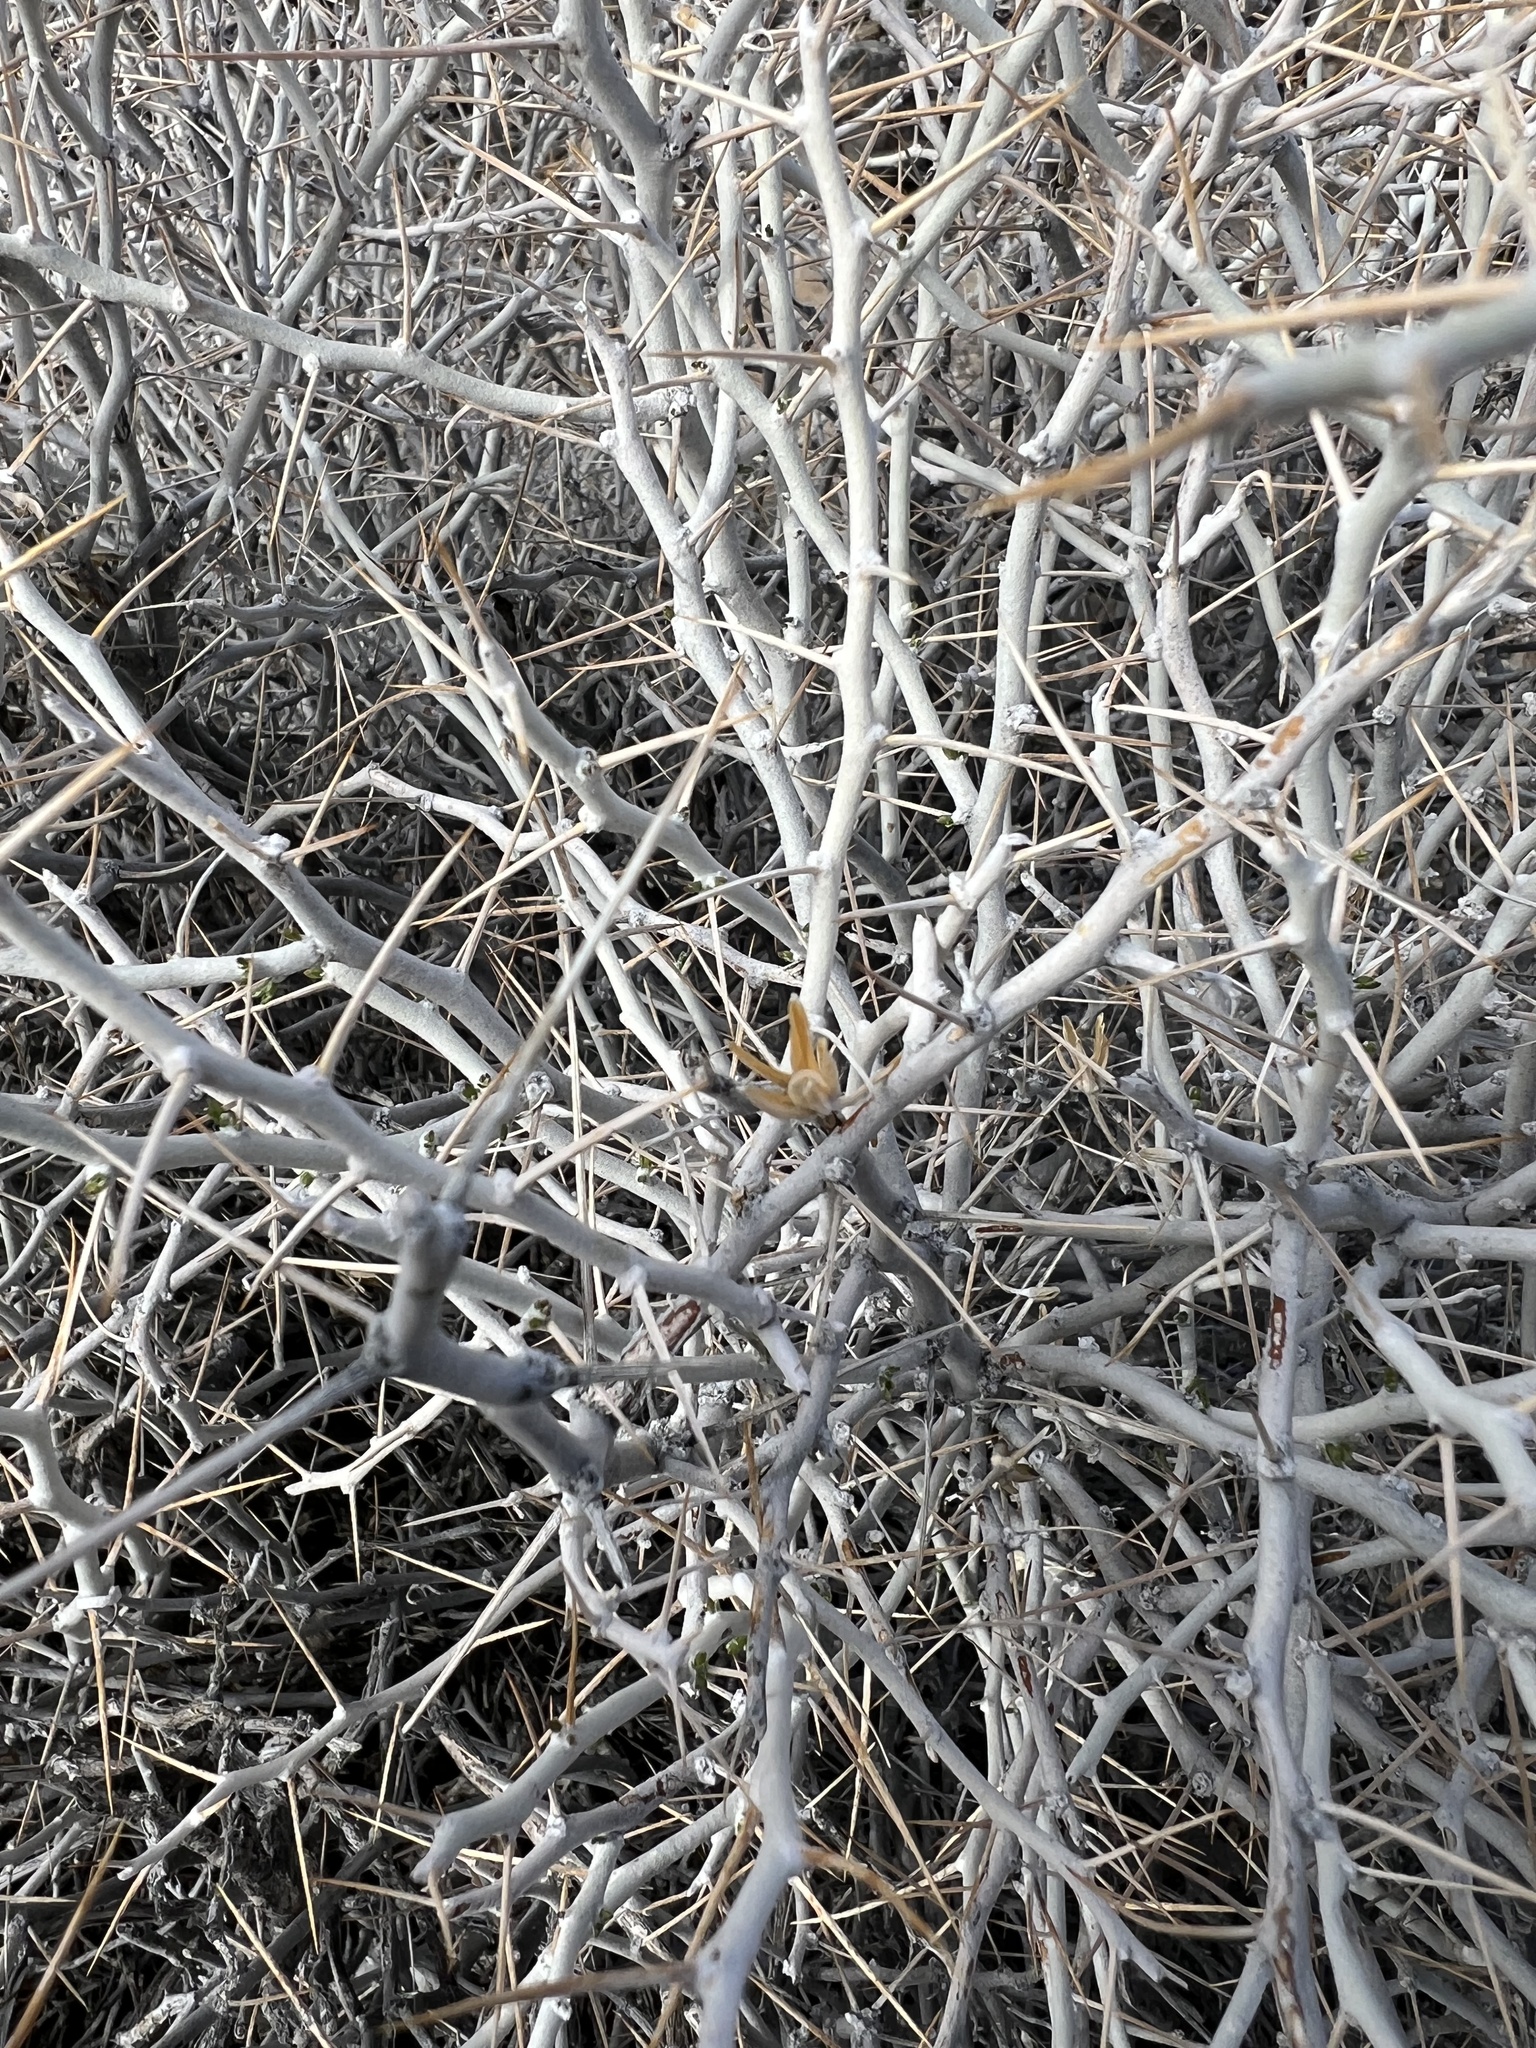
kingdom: Plantae
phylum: Tracheophyta
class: Magnoliopsida
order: Asterales
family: Asteraceae
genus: Tetradymia
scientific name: Tetradymia axillaris
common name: Long-spine horsebrush
